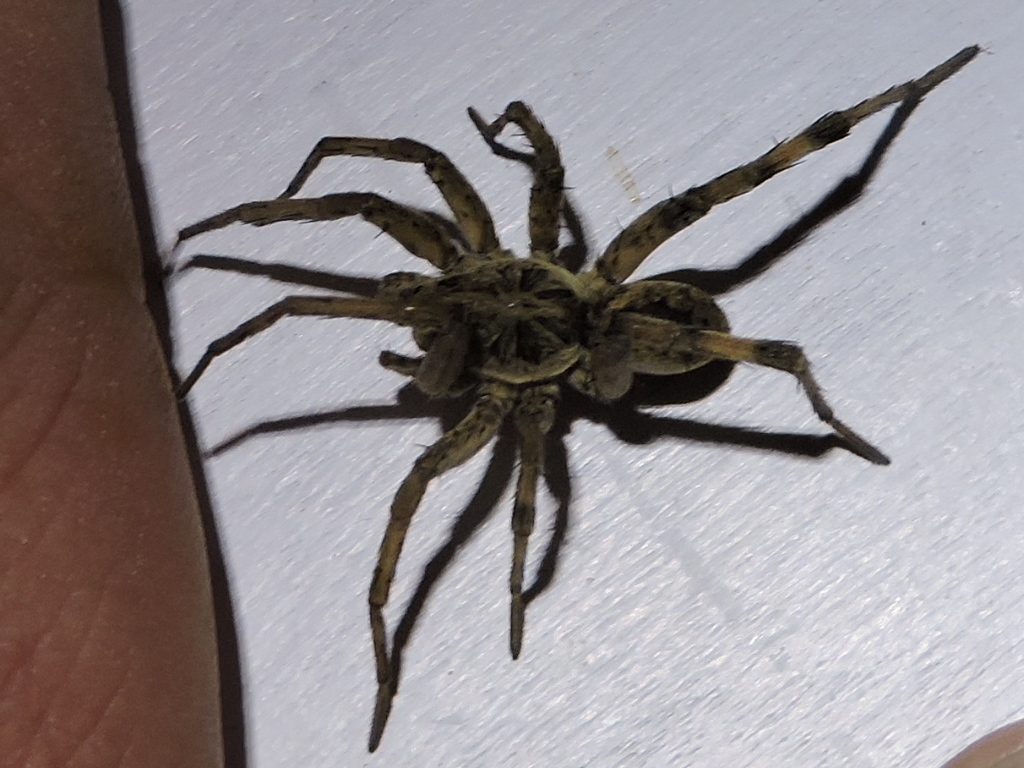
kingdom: Animalia
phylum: Arthropoda
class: Arachnida
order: Araneae
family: Lycosidae
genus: Hogna
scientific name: Hogna antelucana
